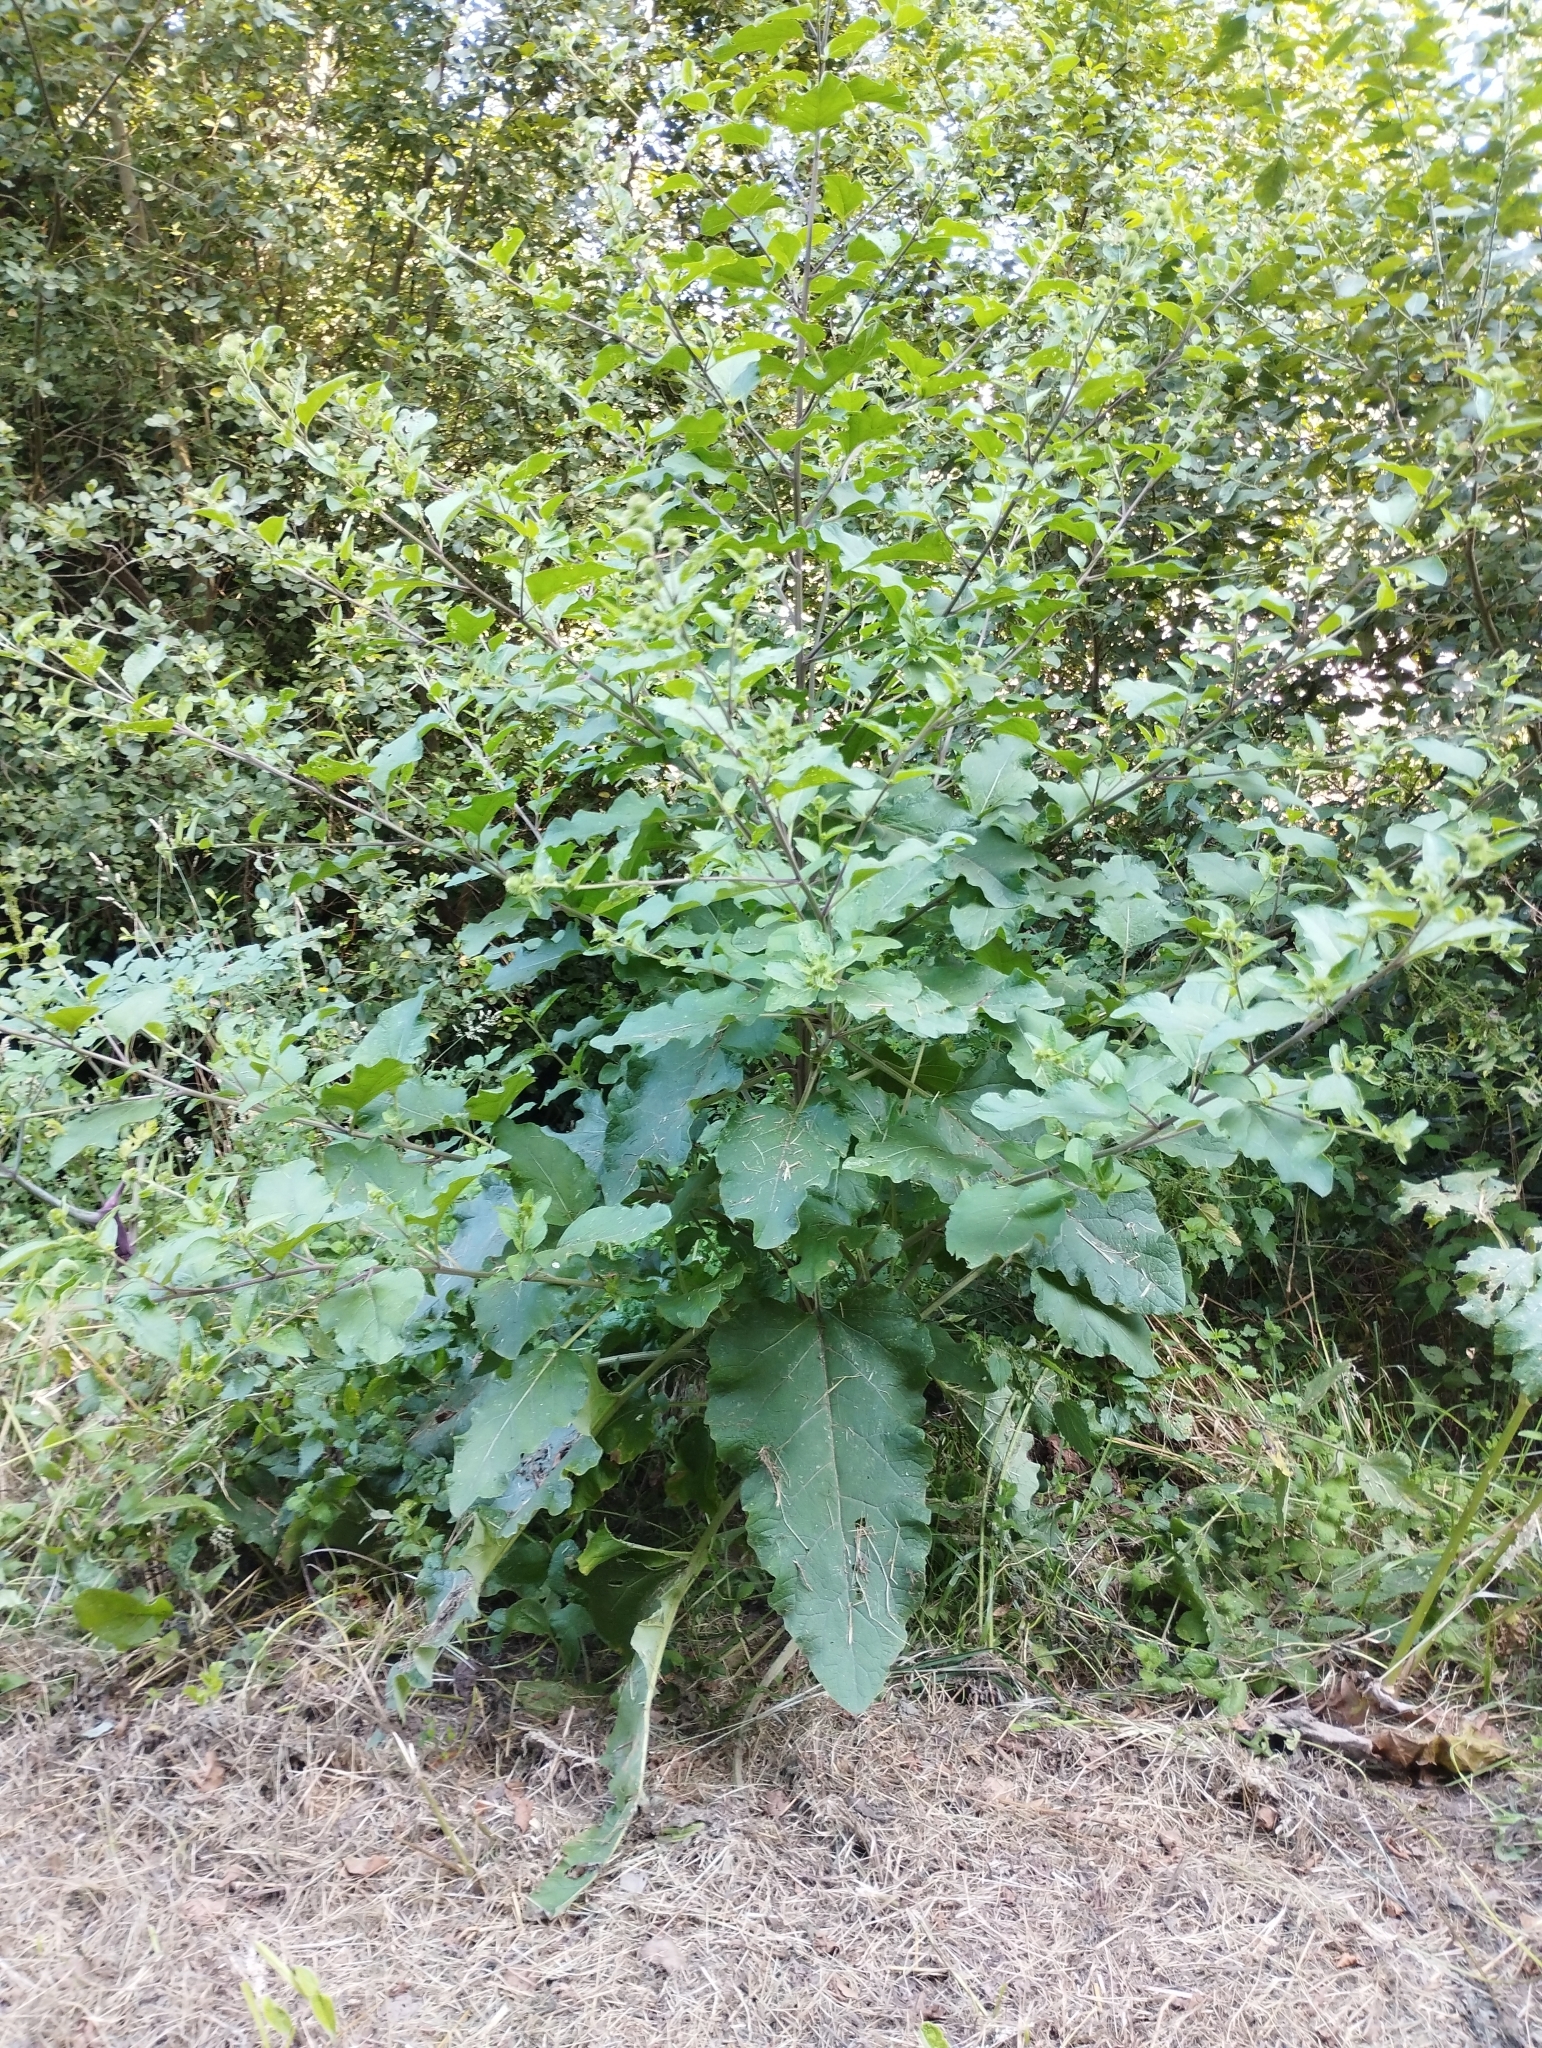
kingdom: Plantae
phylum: Tracheophyta
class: Magnoliopsida
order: Asterales
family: Asteraceae
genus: Arctium
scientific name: Arctium minus
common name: Lesser burdock
